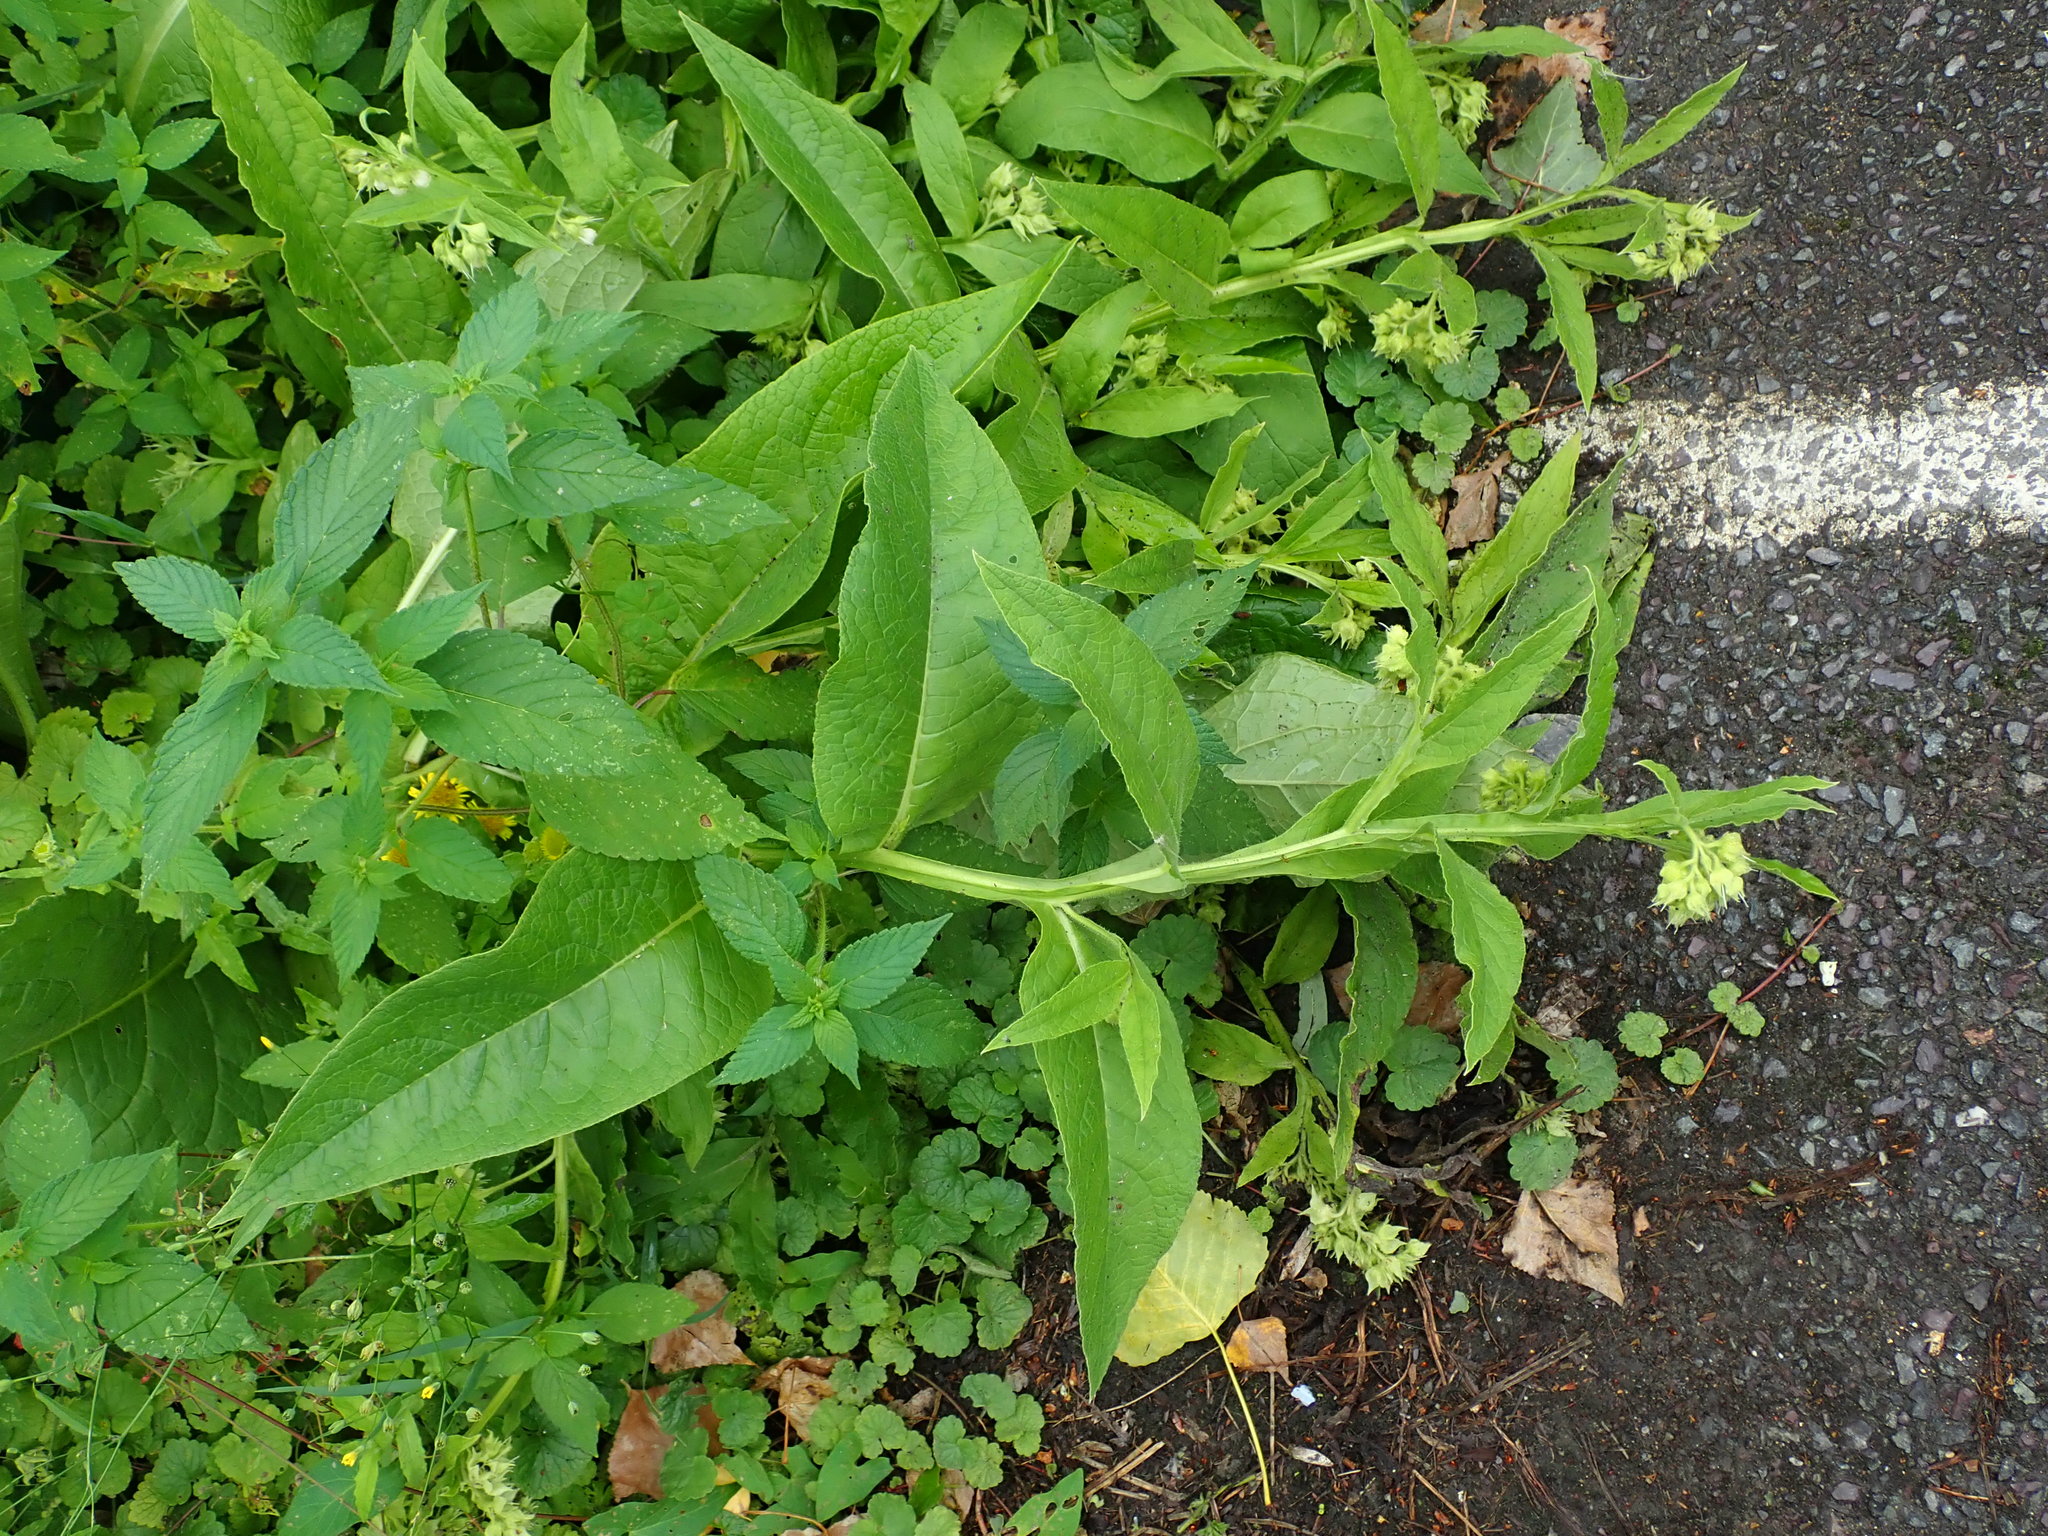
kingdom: Plantae
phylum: Tracheophyta
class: Magnoliopsida
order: Boraginales
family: Boraginaceae
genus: Symphytum
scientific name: Symphytum officinale
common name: Common comfrey
